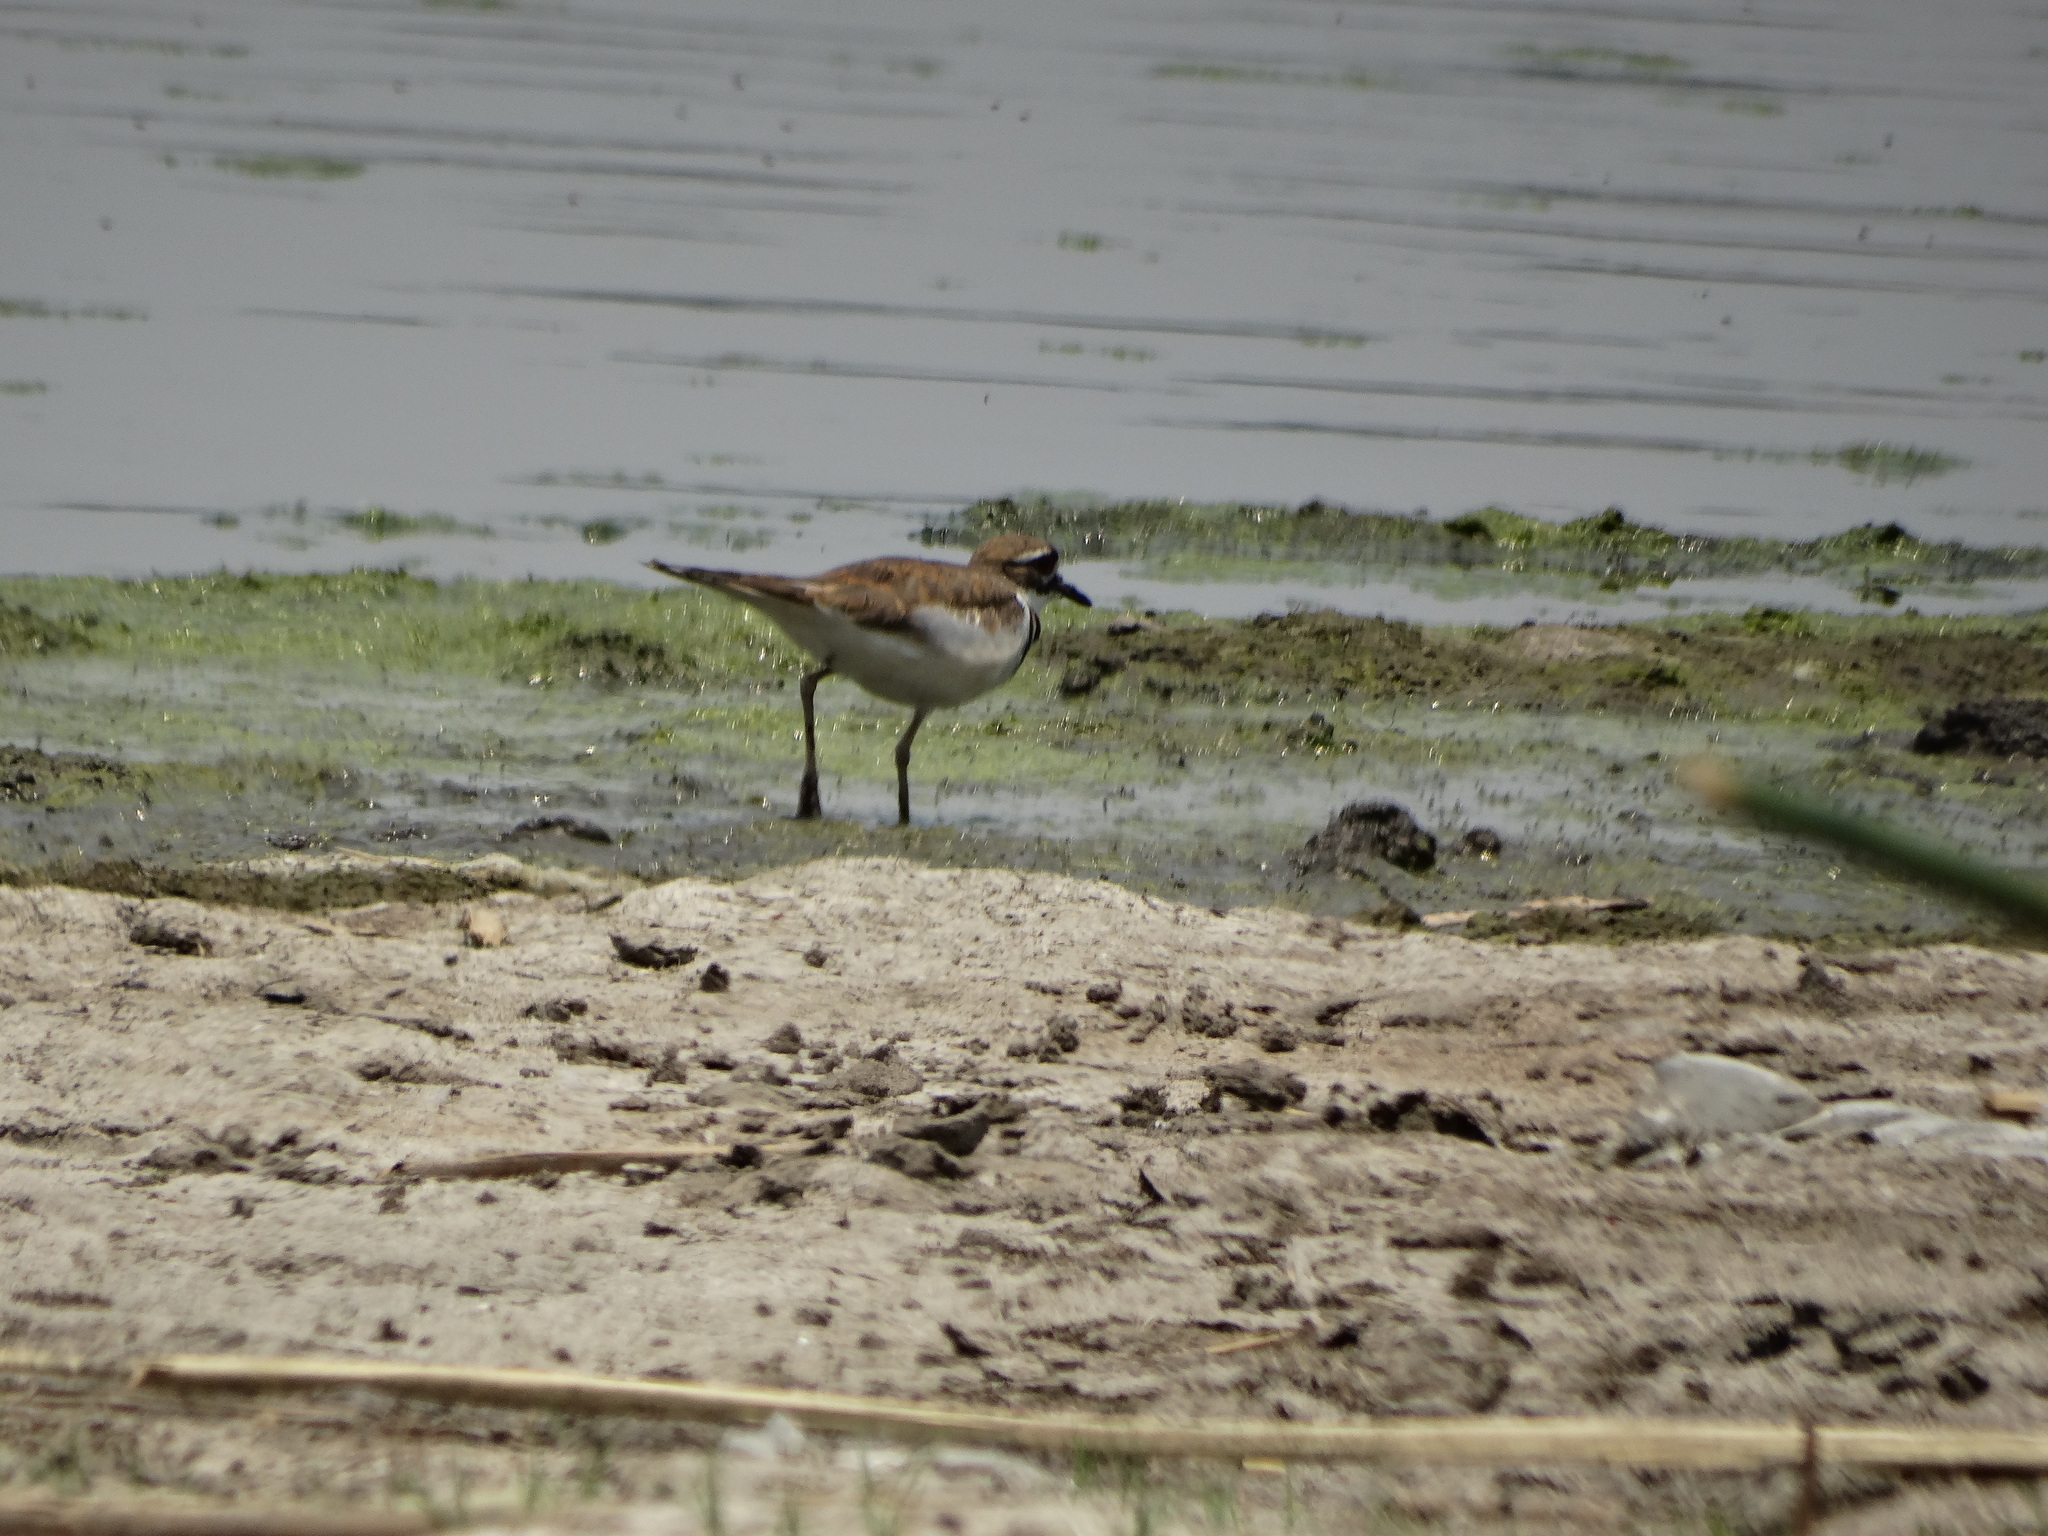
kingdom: Animalia
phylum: Chordata
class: Aves
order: Charadriiformes
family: Charadriidae
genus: Charadrius
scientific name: Charadrius vociferus
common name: Killdeer
